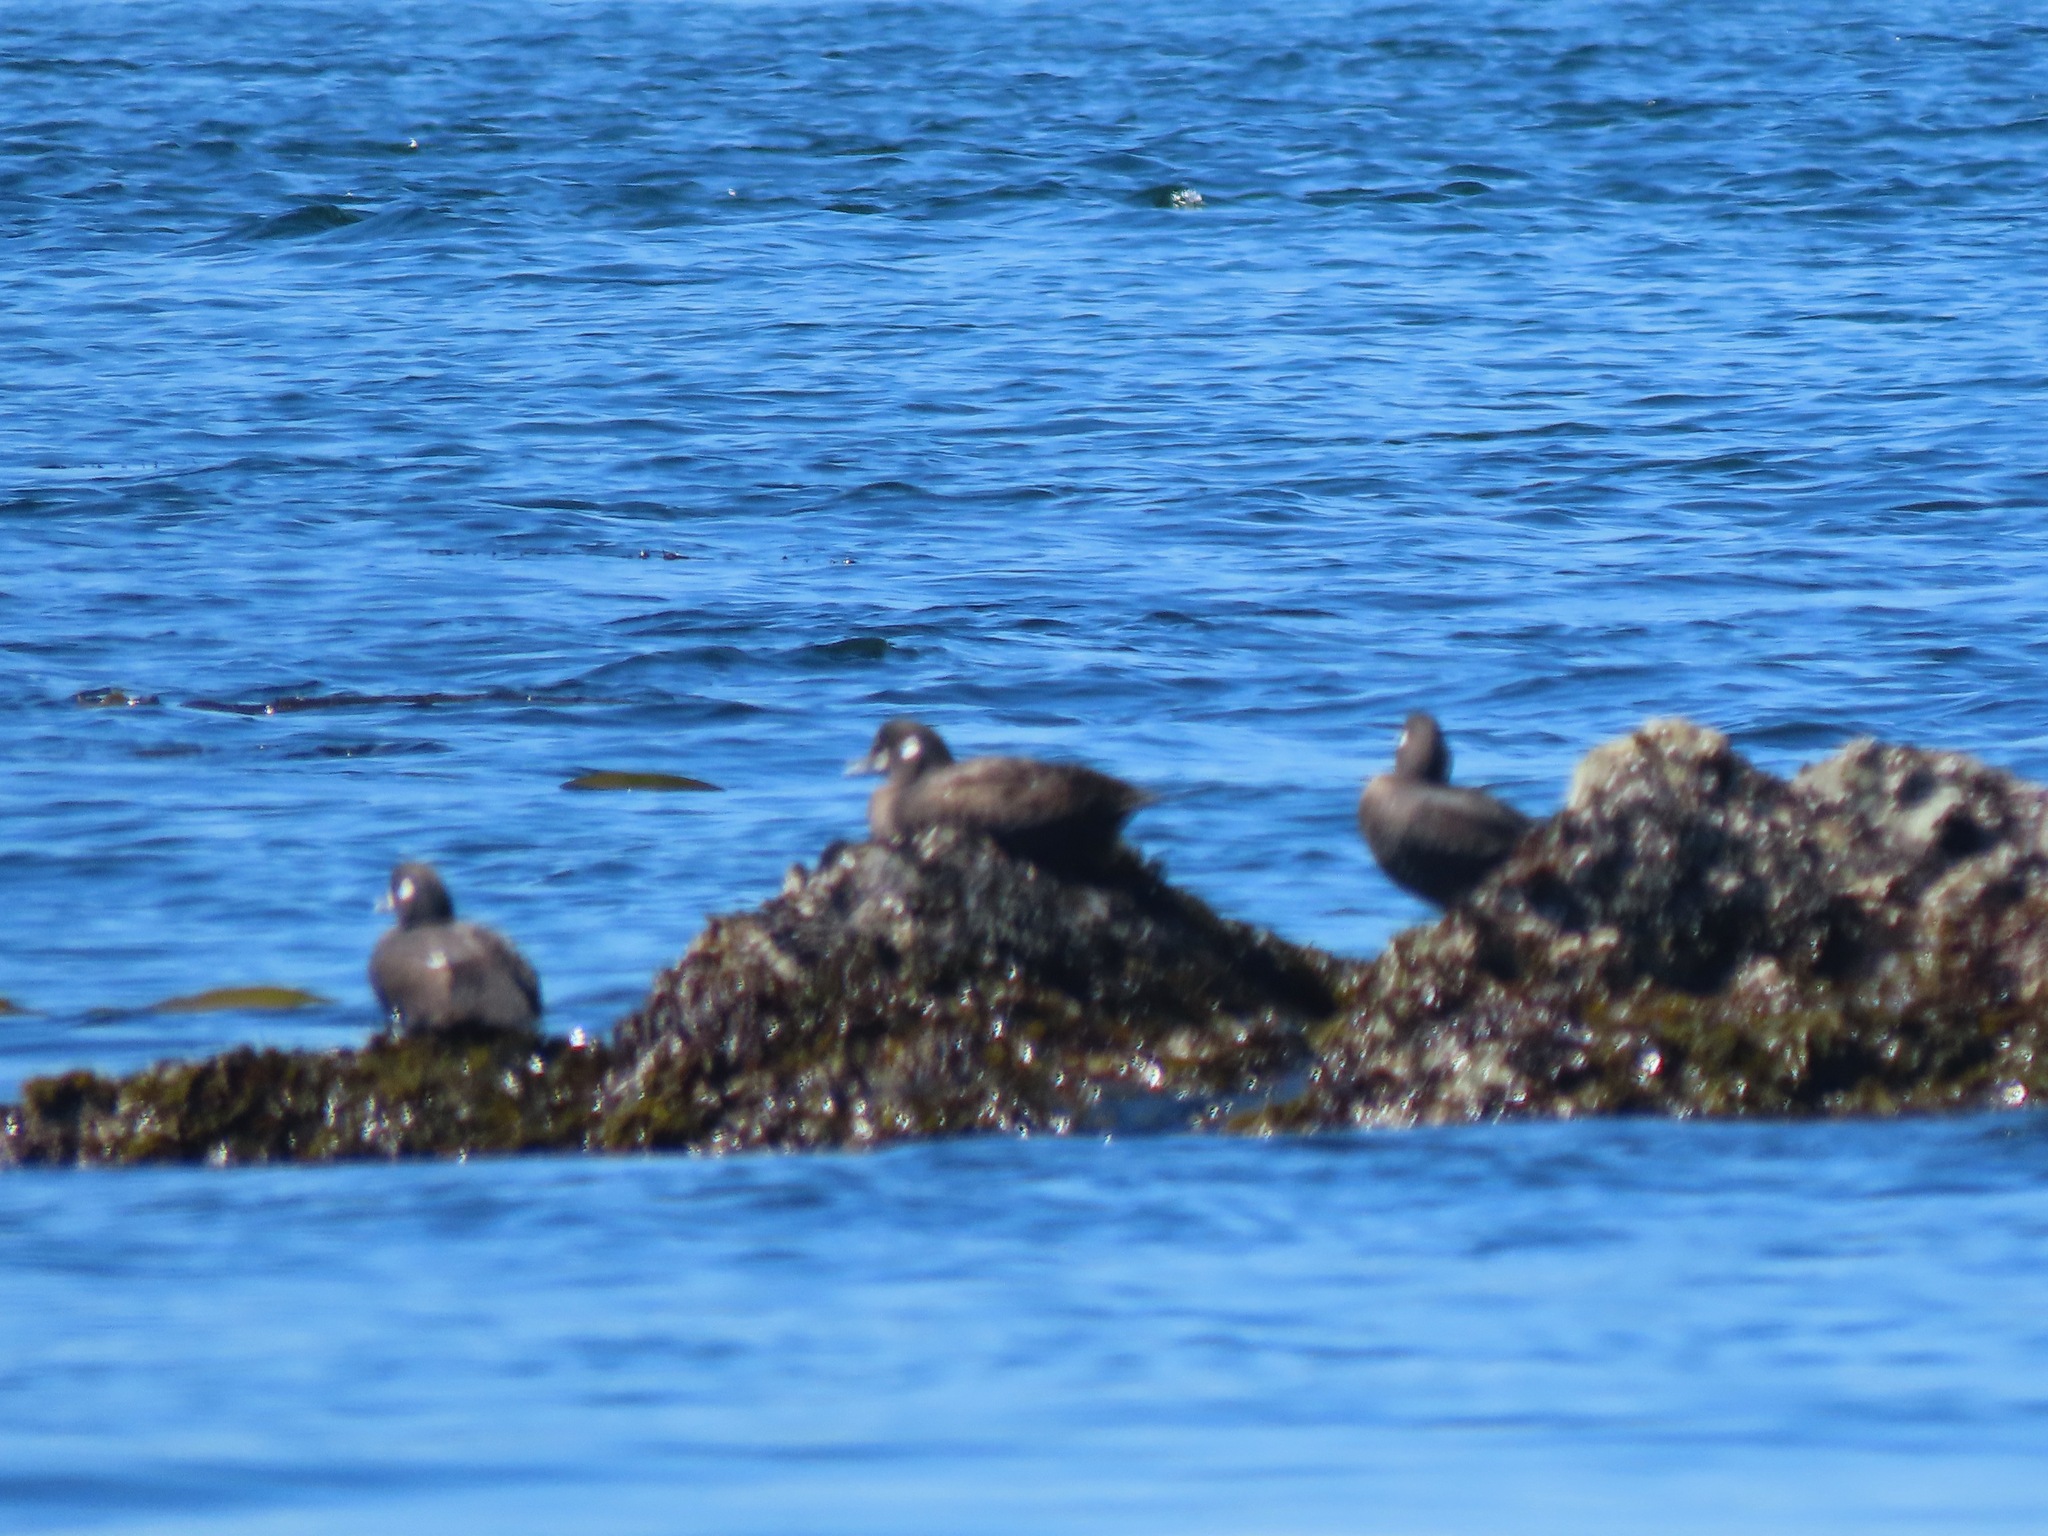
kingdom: Animalia
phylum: Chordata
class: Aves
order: Anseriformes
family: Anatidae
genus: Histrionicus
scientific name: Histrionicus histrionicus
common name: Harlequin duck
